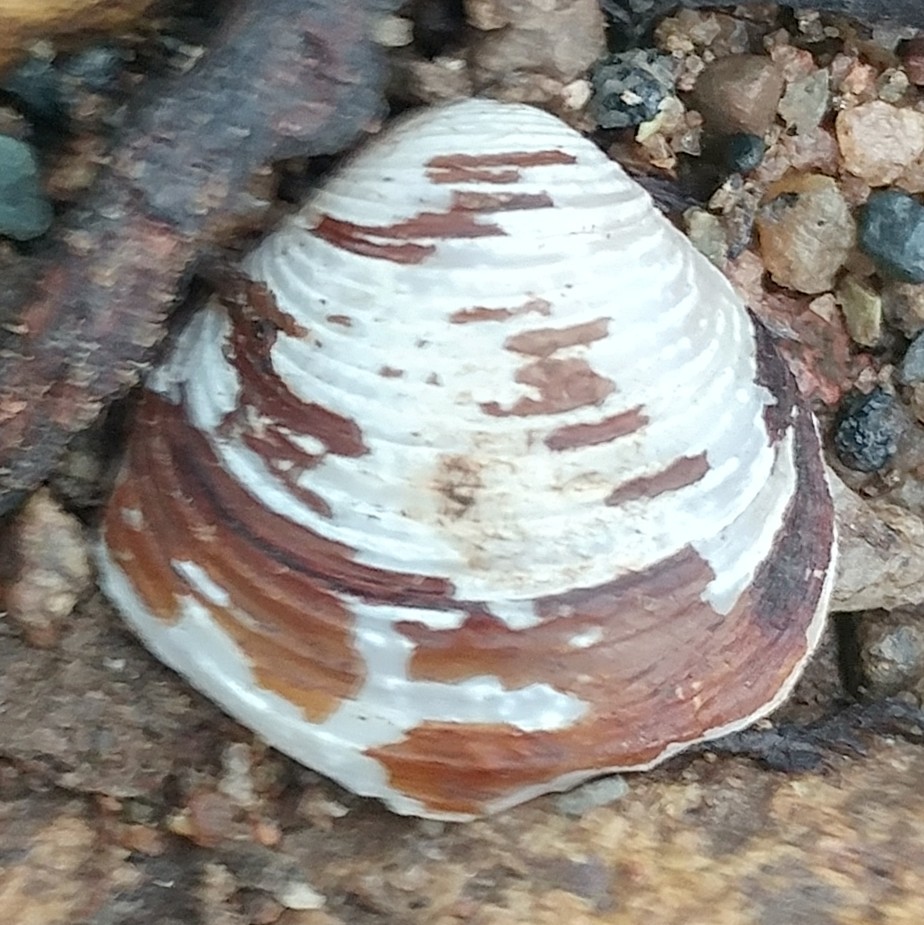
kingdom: Animalia
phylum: Mollusca
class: Bivalvia
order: Venerida
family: Cyrenidae
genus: Corbicula
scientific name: Corbicula fluminea
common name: Asian clam
